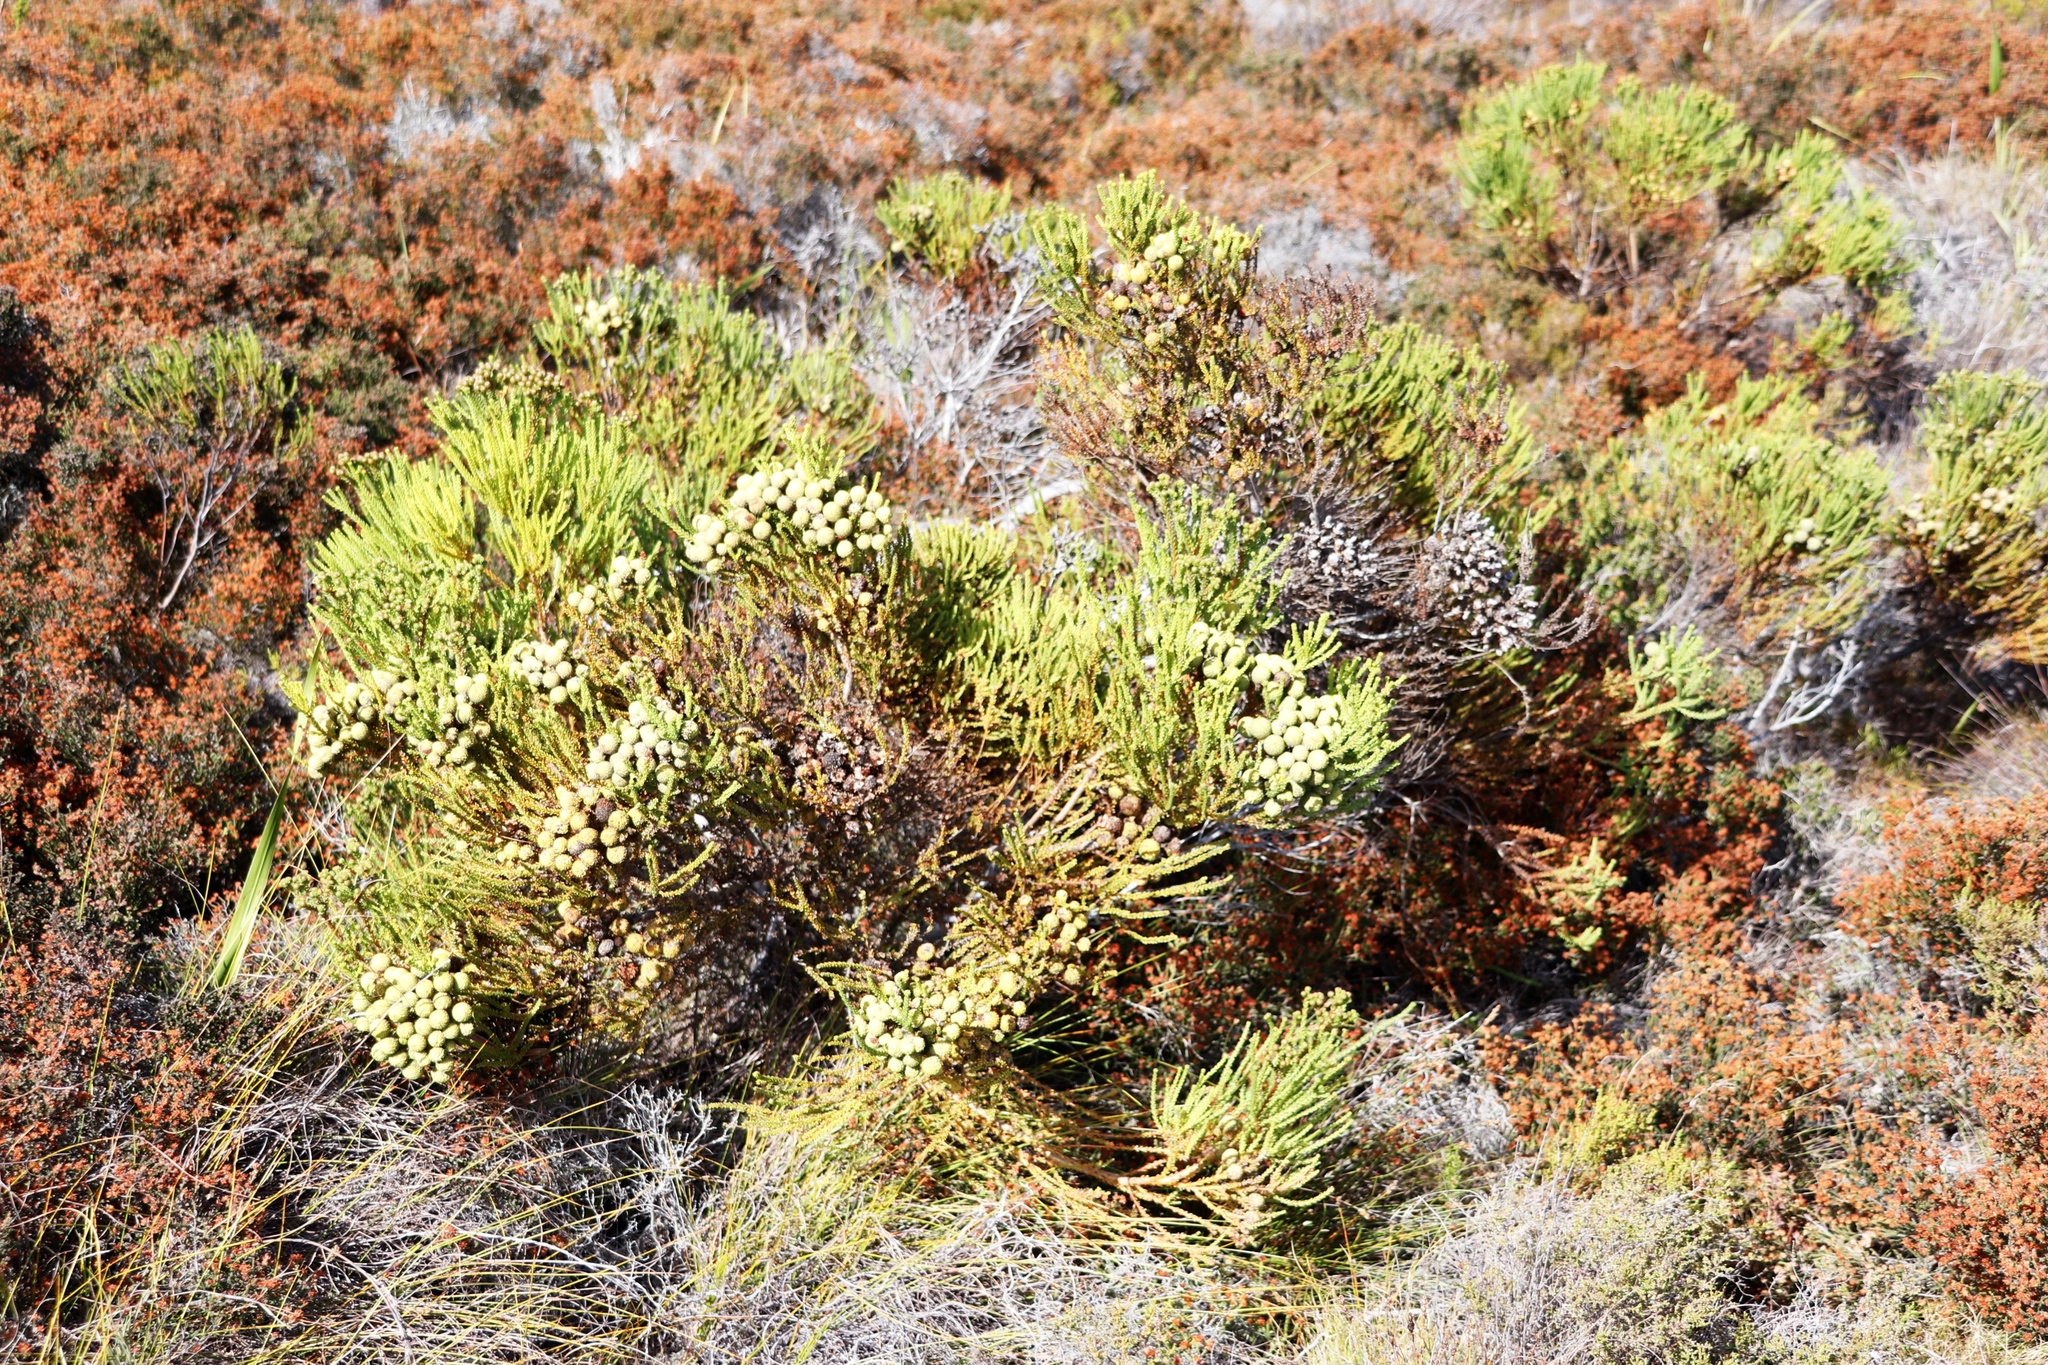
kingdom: Plantae
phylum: Tracheophyta
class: Magnoliopsida
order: Bruniales
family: Bruniaceae
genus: Berzelia
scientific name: Berzelia abrotanoides
